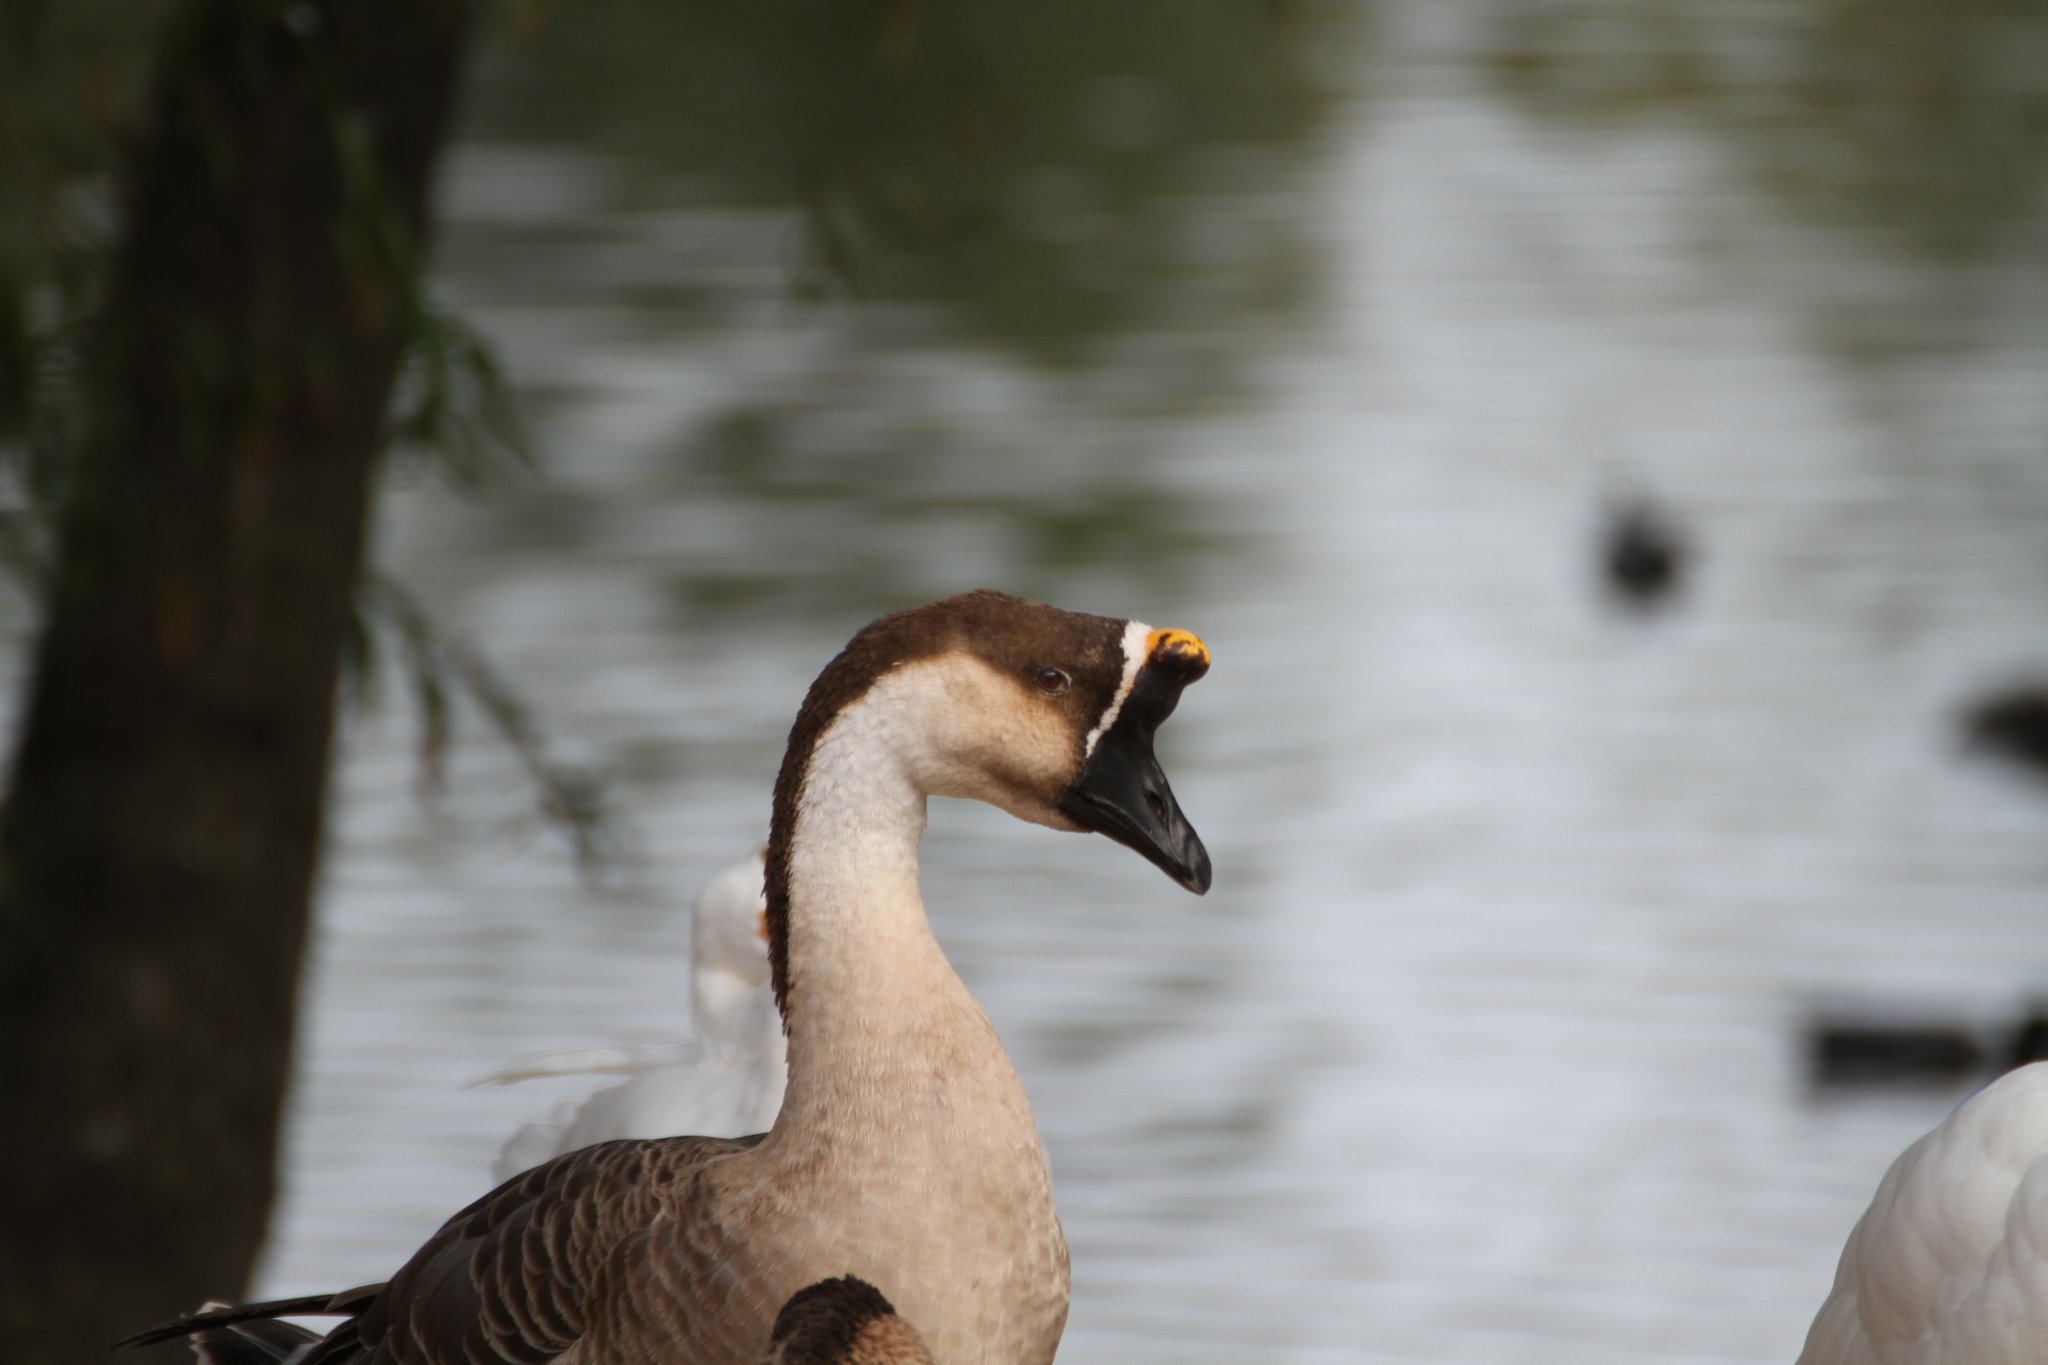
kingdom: Animalia
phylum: Chordata
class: Aves
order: Anseriformes
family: Anatidae
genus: Anser
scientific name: Anser cygnoides
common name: Swan goose
